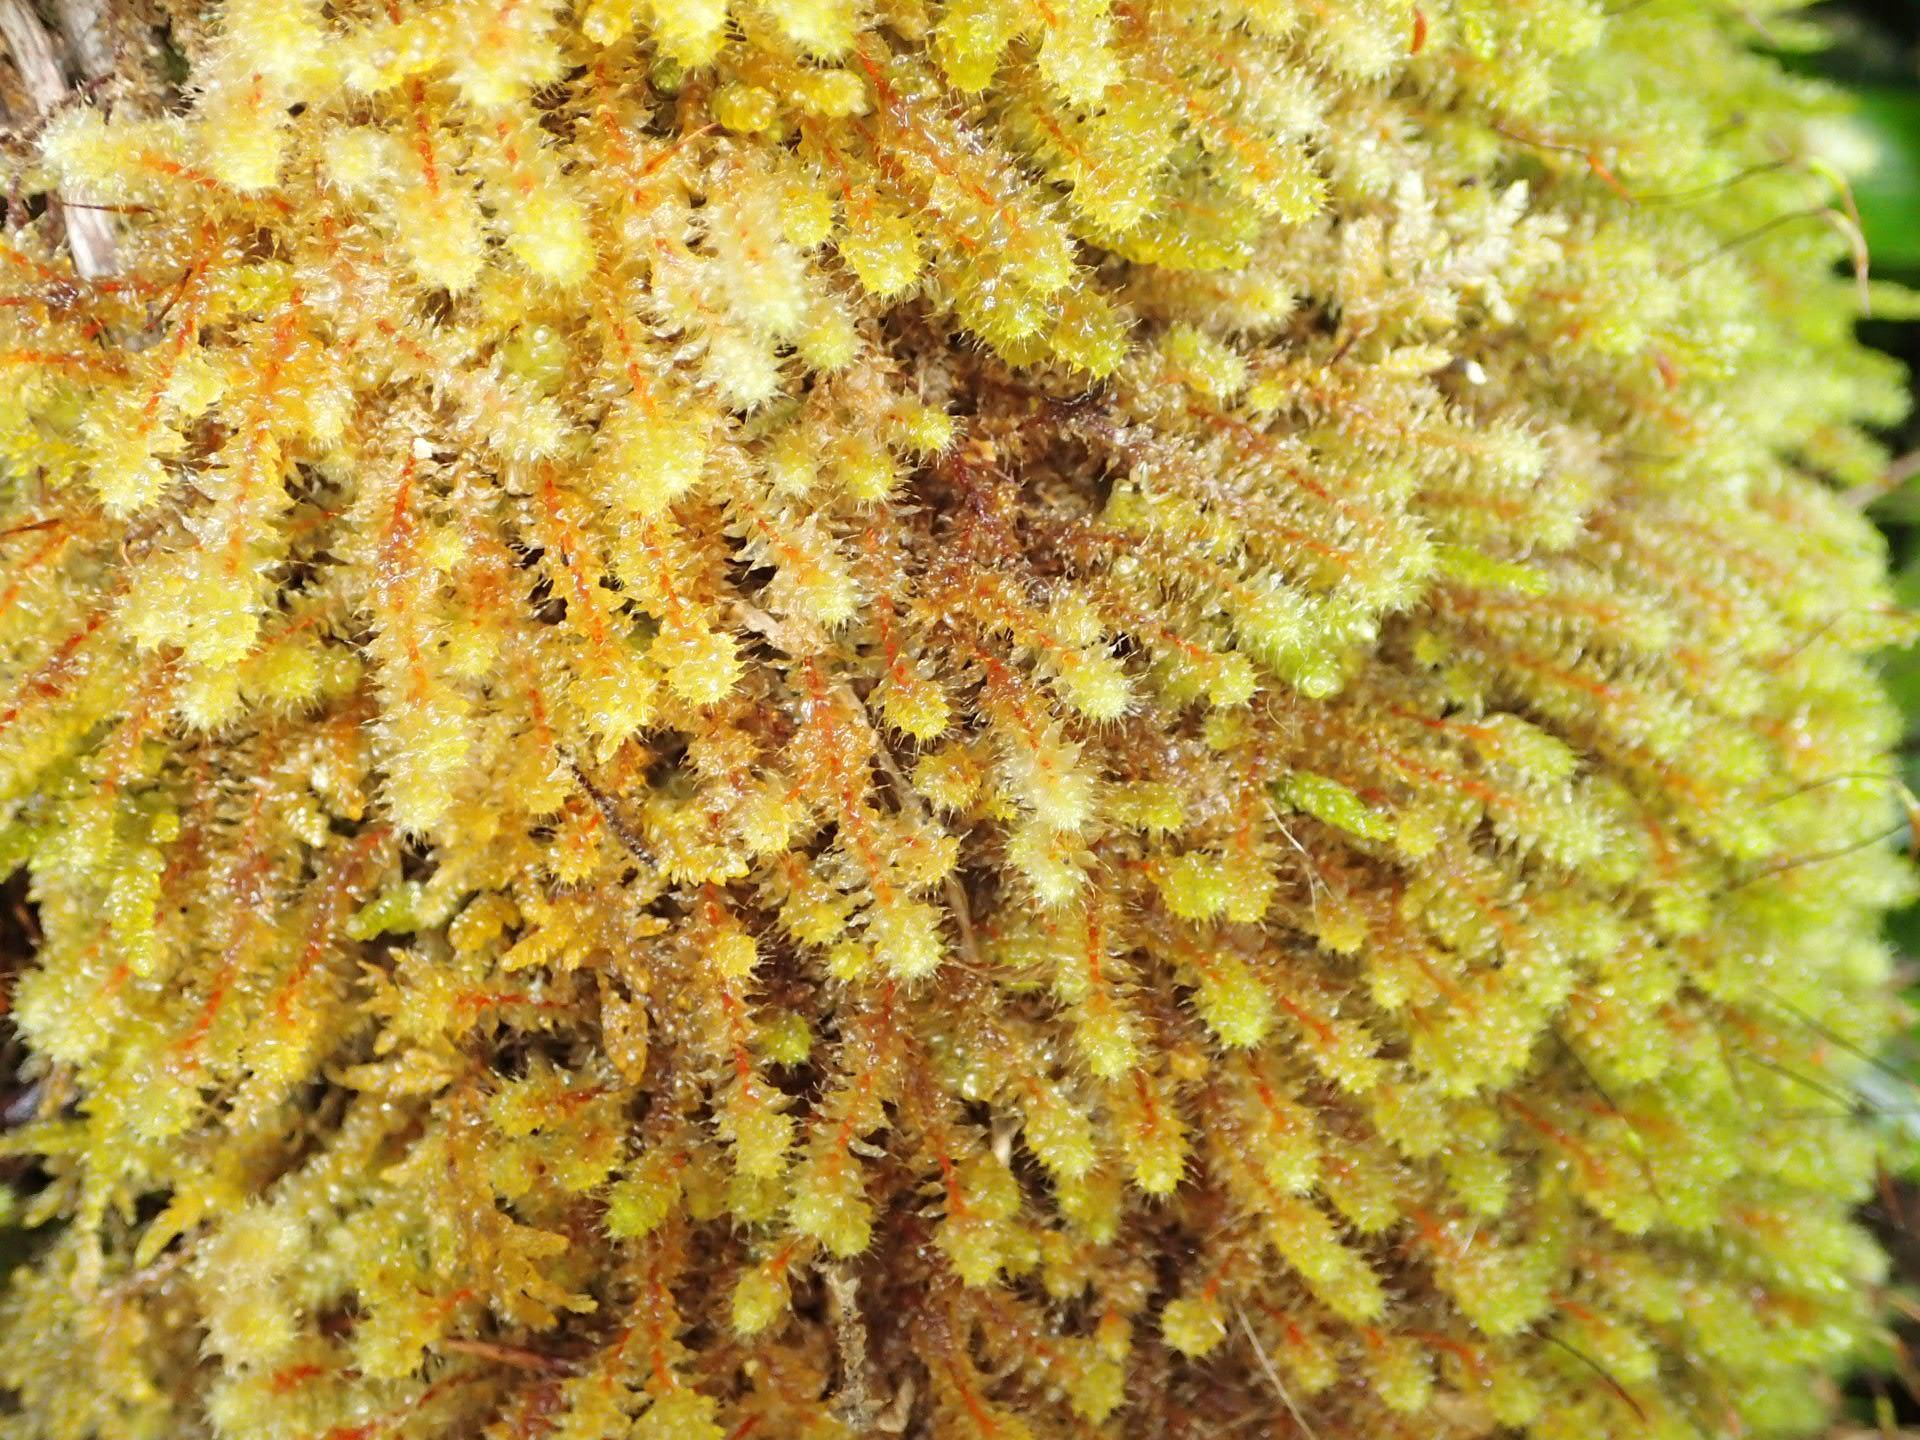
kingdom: Plantae
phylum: Bryophyta
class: Bryopsida
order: Ptychomniales
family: Ptychomniaceae
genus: Ptychomnion
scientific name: Ptychomnion aciculare
